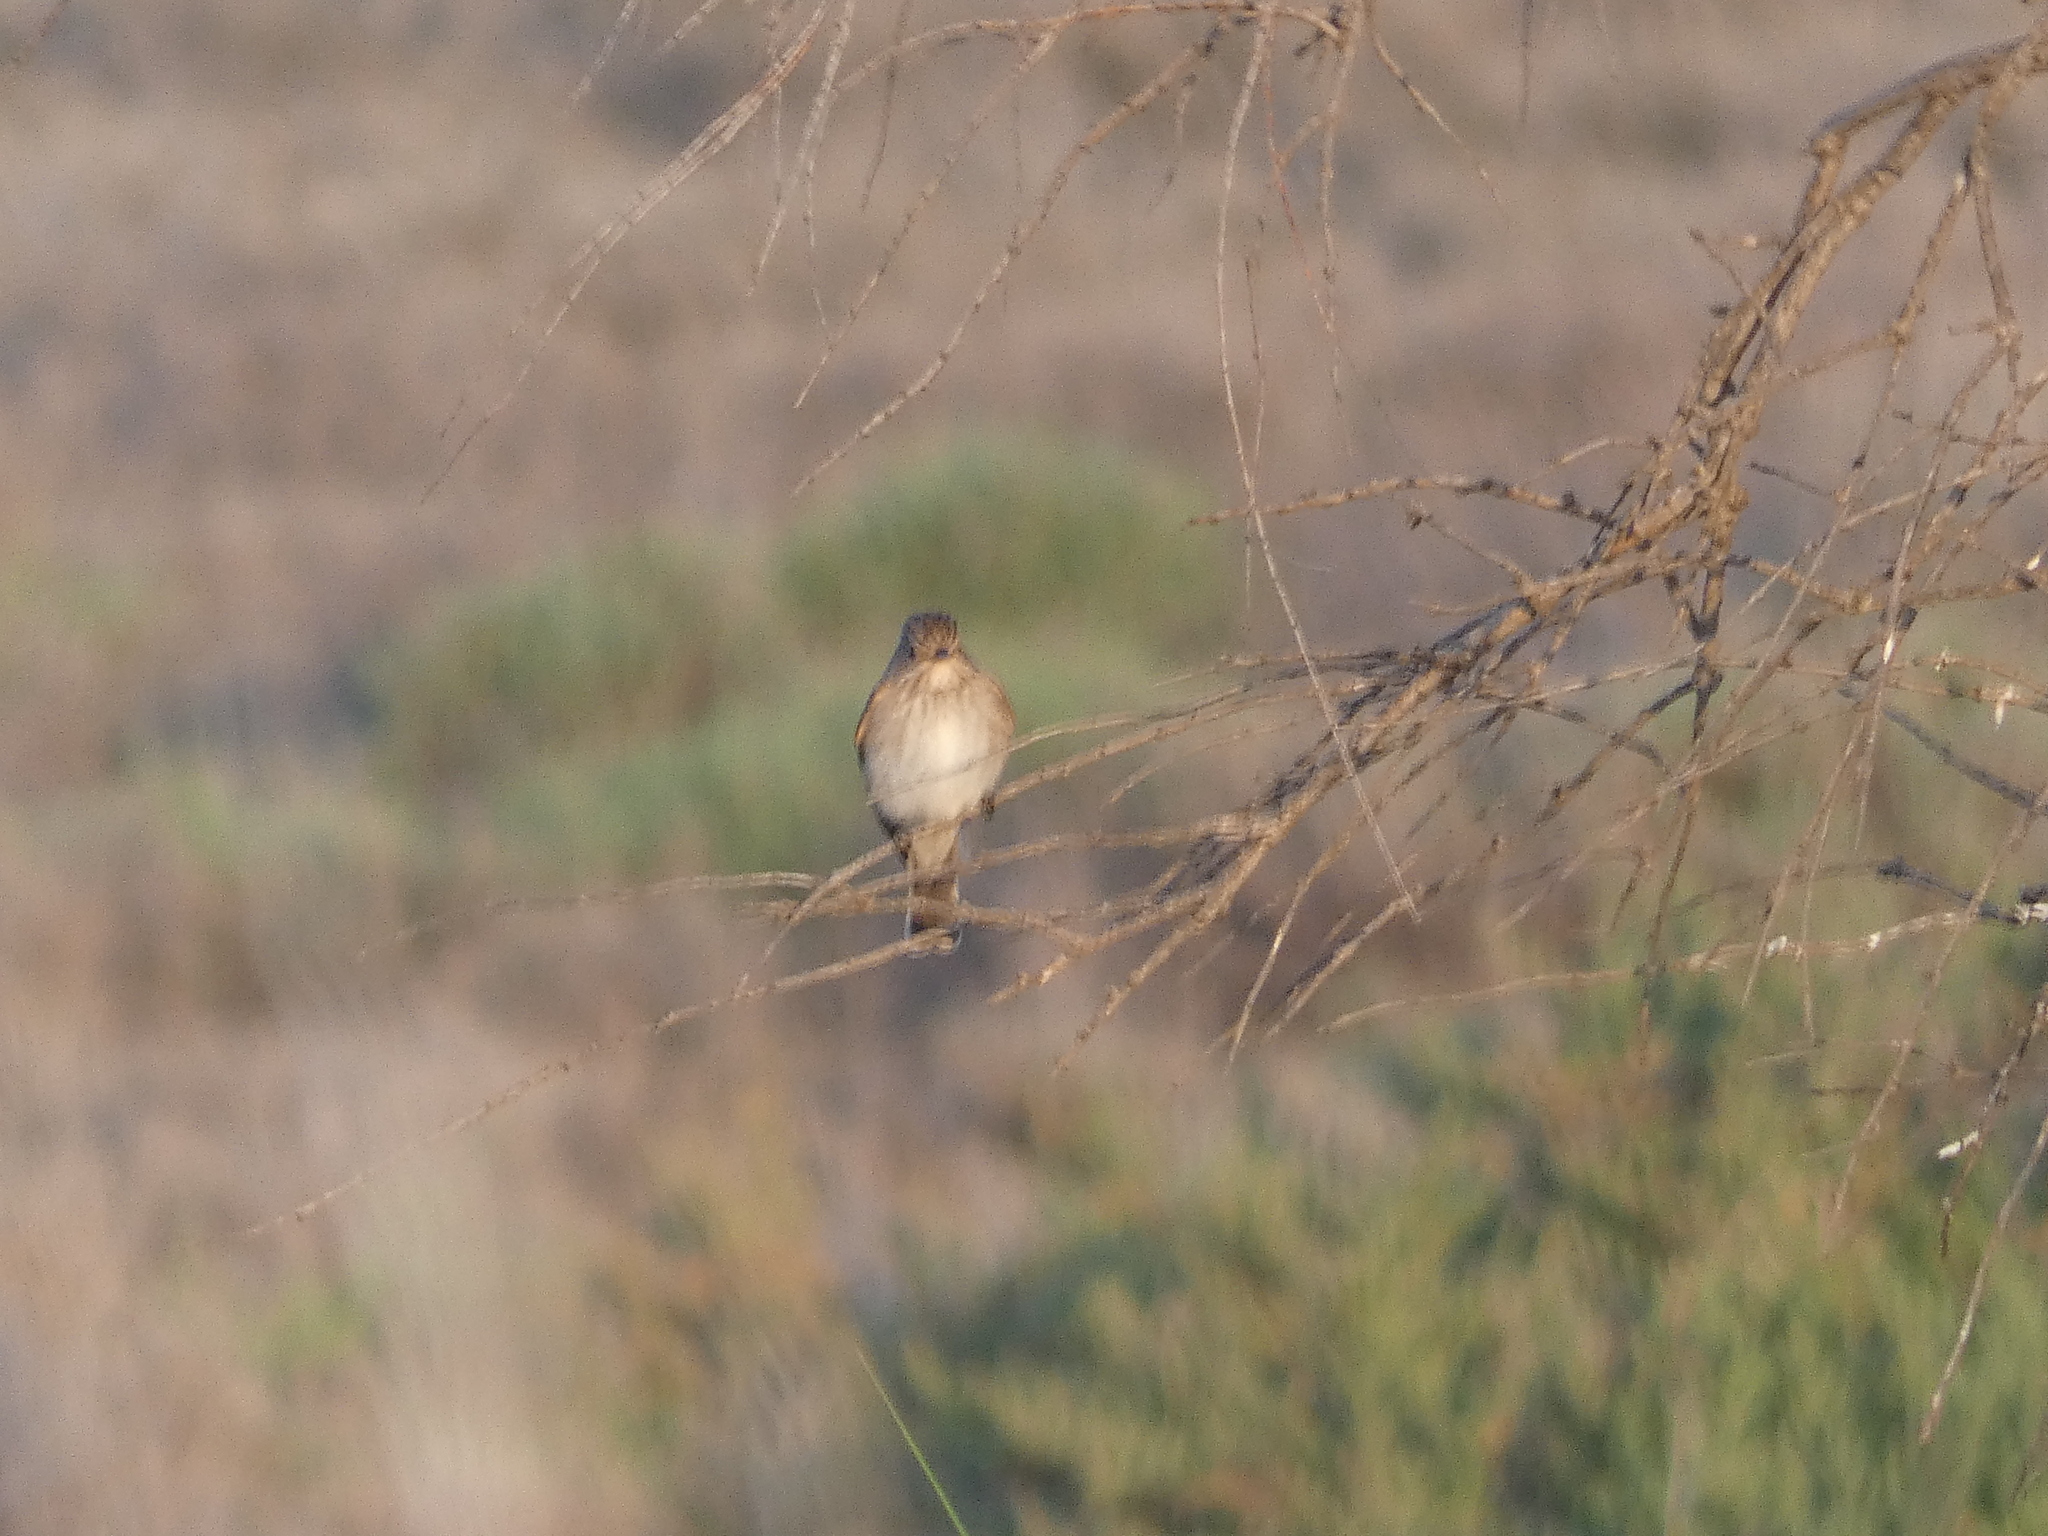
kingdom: Animalia
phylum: Chordata
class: Aves
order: Passeriformes
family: Muscicapidae
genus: Muscicapa
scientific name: Muscicapa striata
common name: Spotted flycatcher
